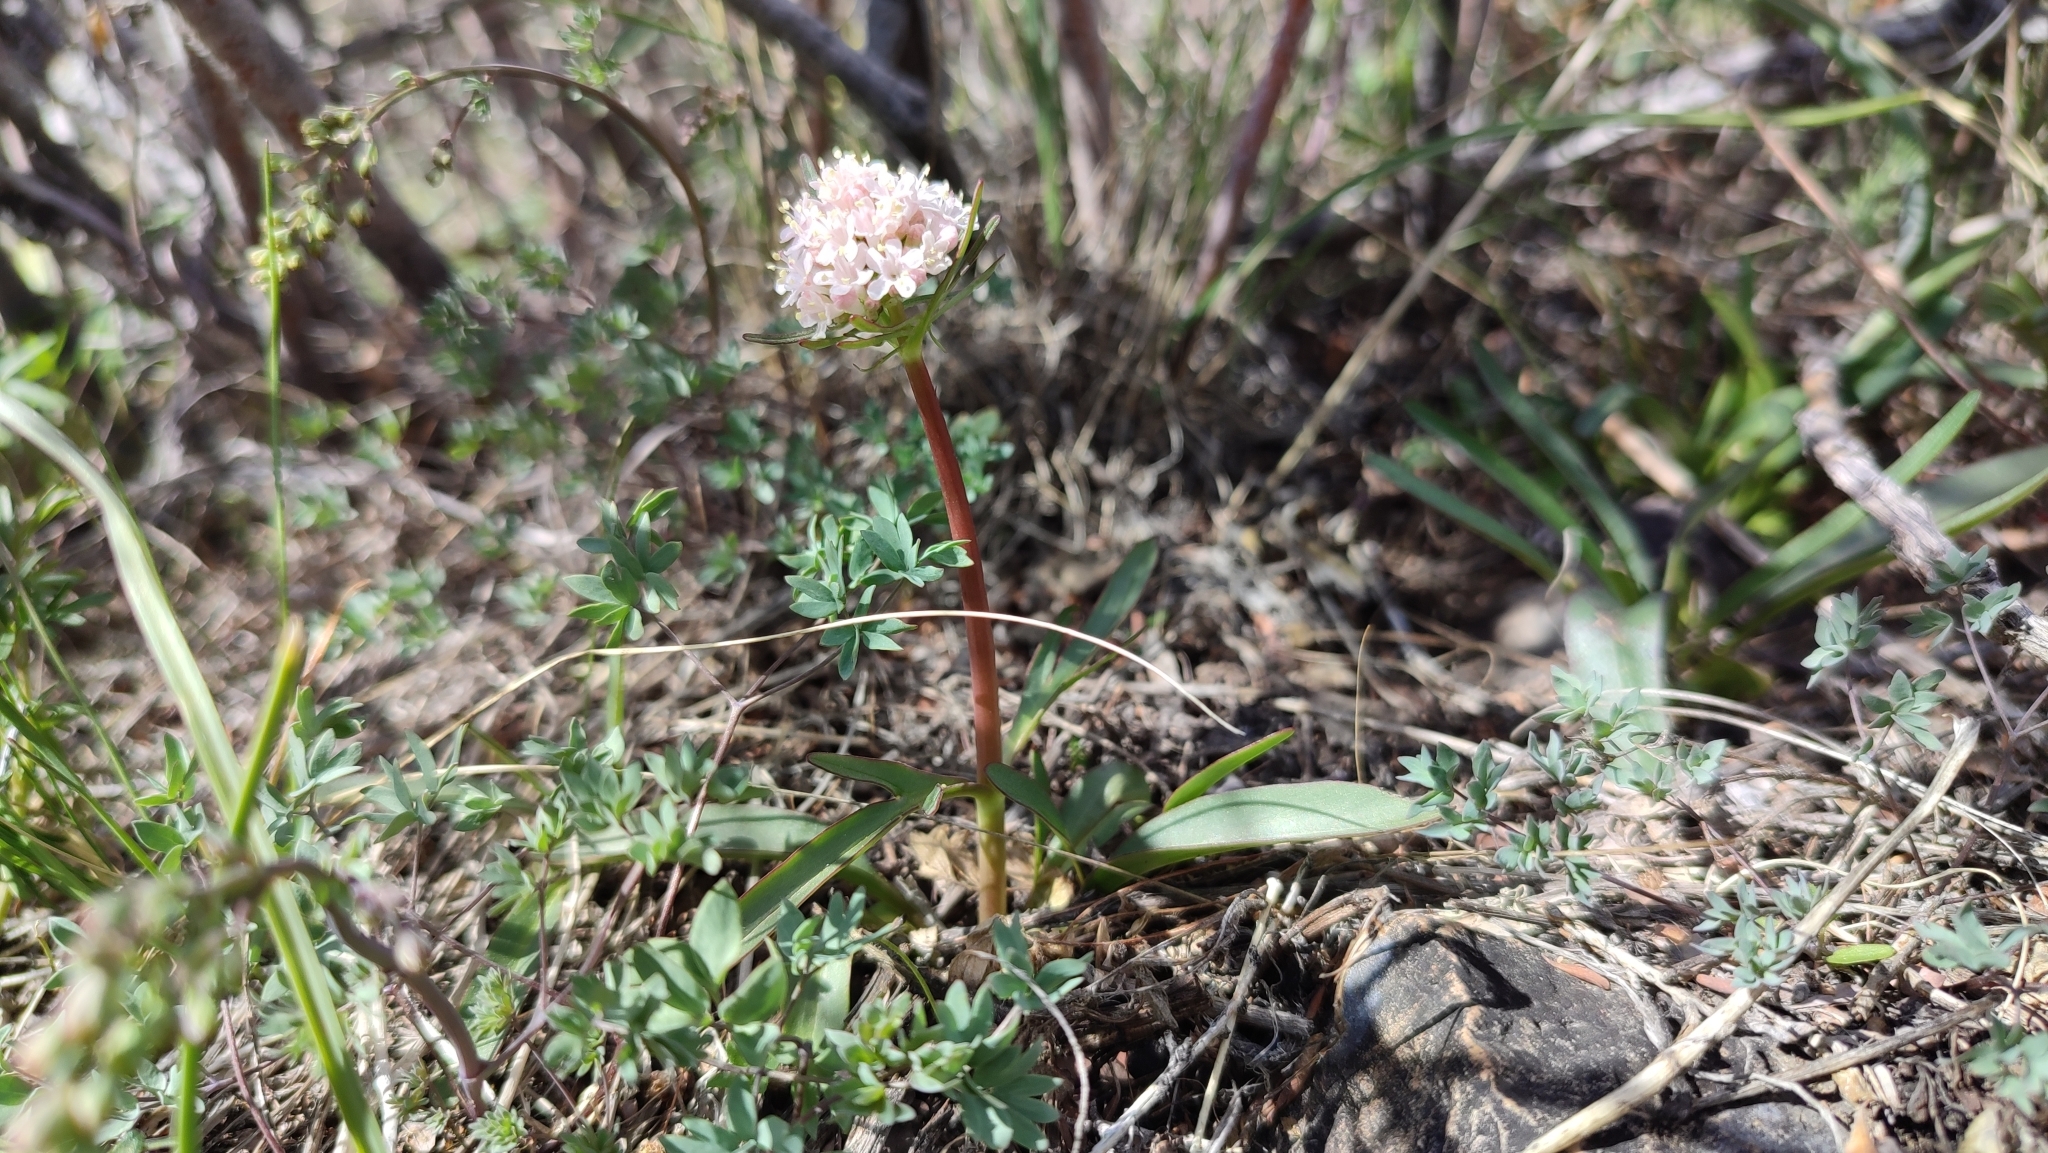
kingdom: Plantae
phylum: Tracheophyta
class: Magnoliopsida
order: Dipsacales
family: Caprifoliaceae
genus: Valeriana
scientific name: Valeriana tuberosa
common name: Tuberous valerian
